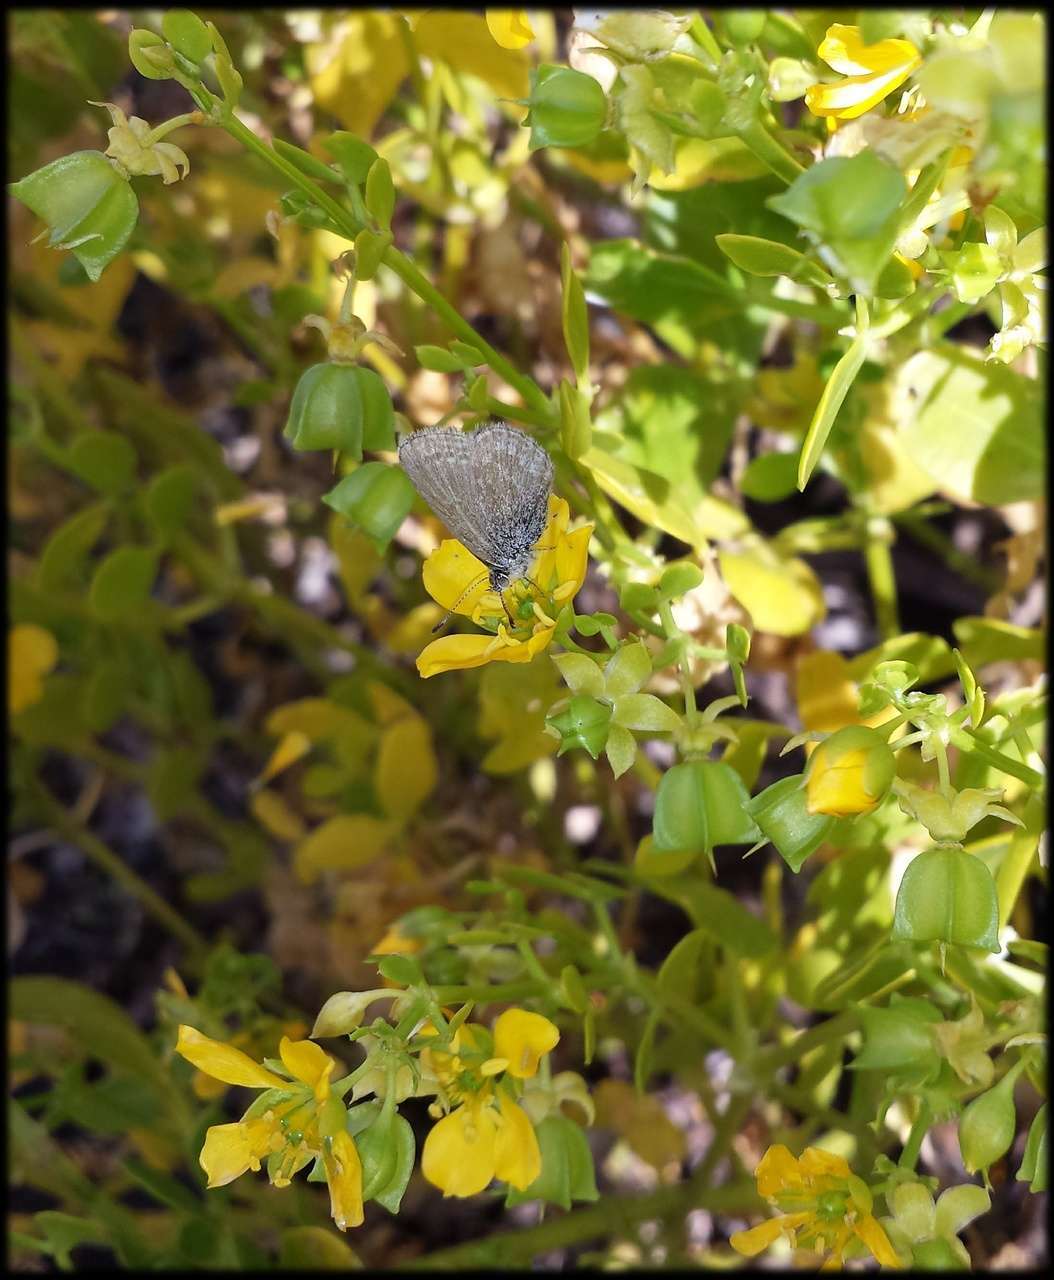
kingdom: Animalia
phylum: Arthropoda
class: Insecta
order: Lepidoptera
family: Lycaenidae
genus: Zizina
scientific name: Zizina labradus
